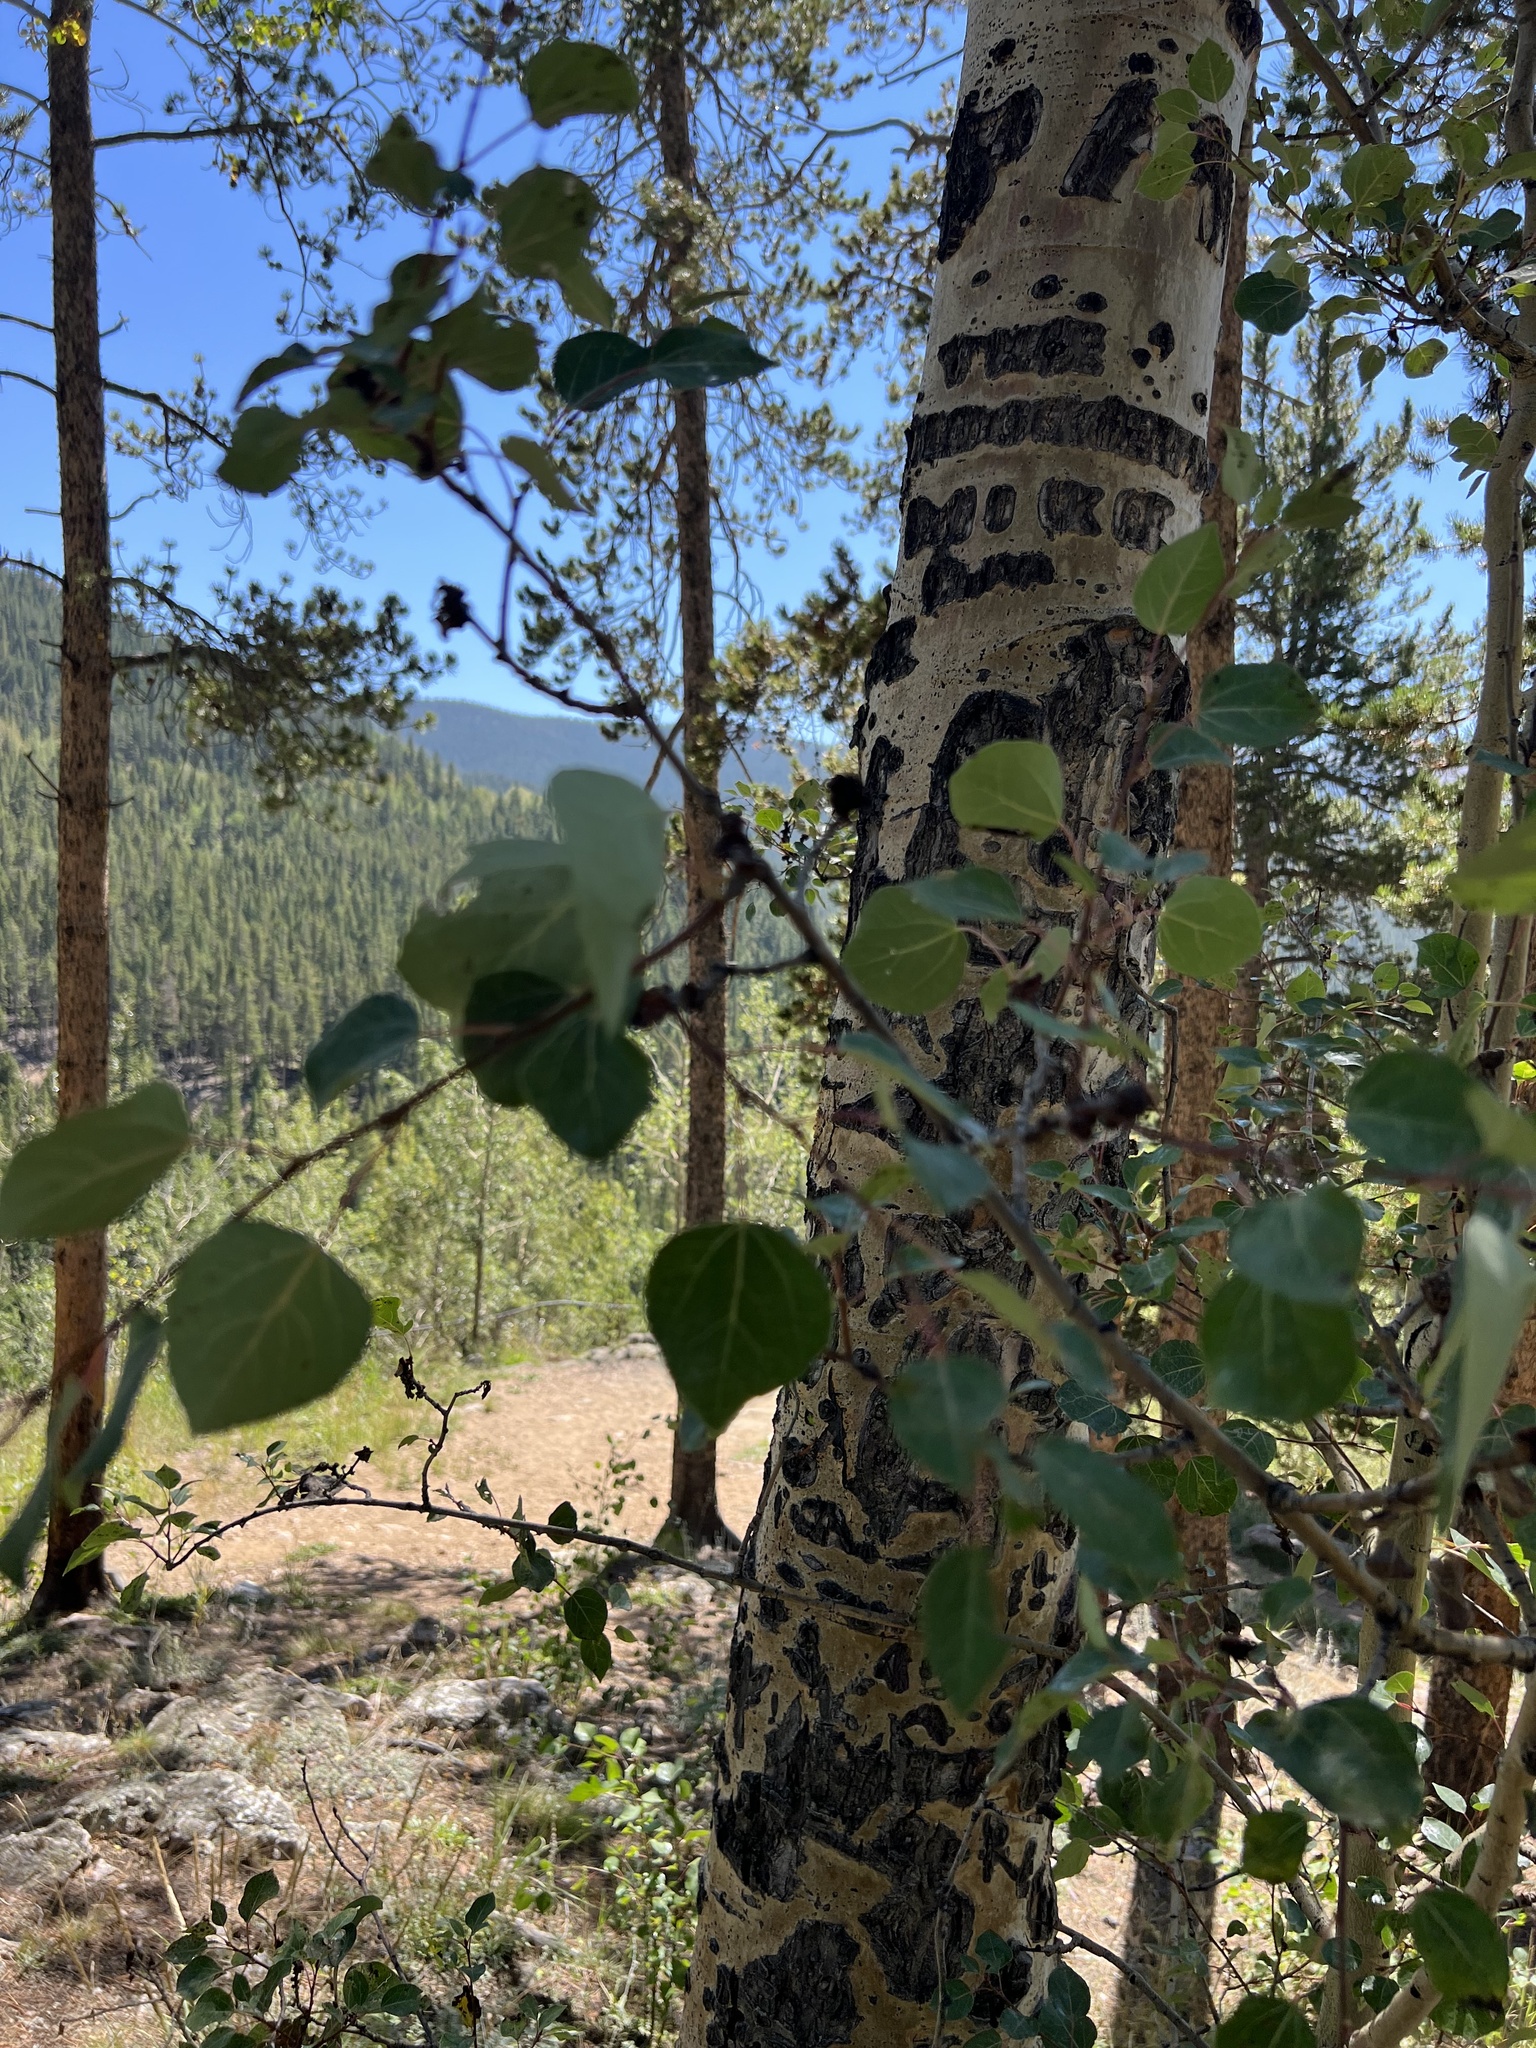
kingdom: Plantae
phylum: Tracheophyta
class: Magnoliopsida
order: Malpighiales
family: Salicaceae
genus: Populus
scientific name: Populus tremuloides
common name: Quaking aspen
